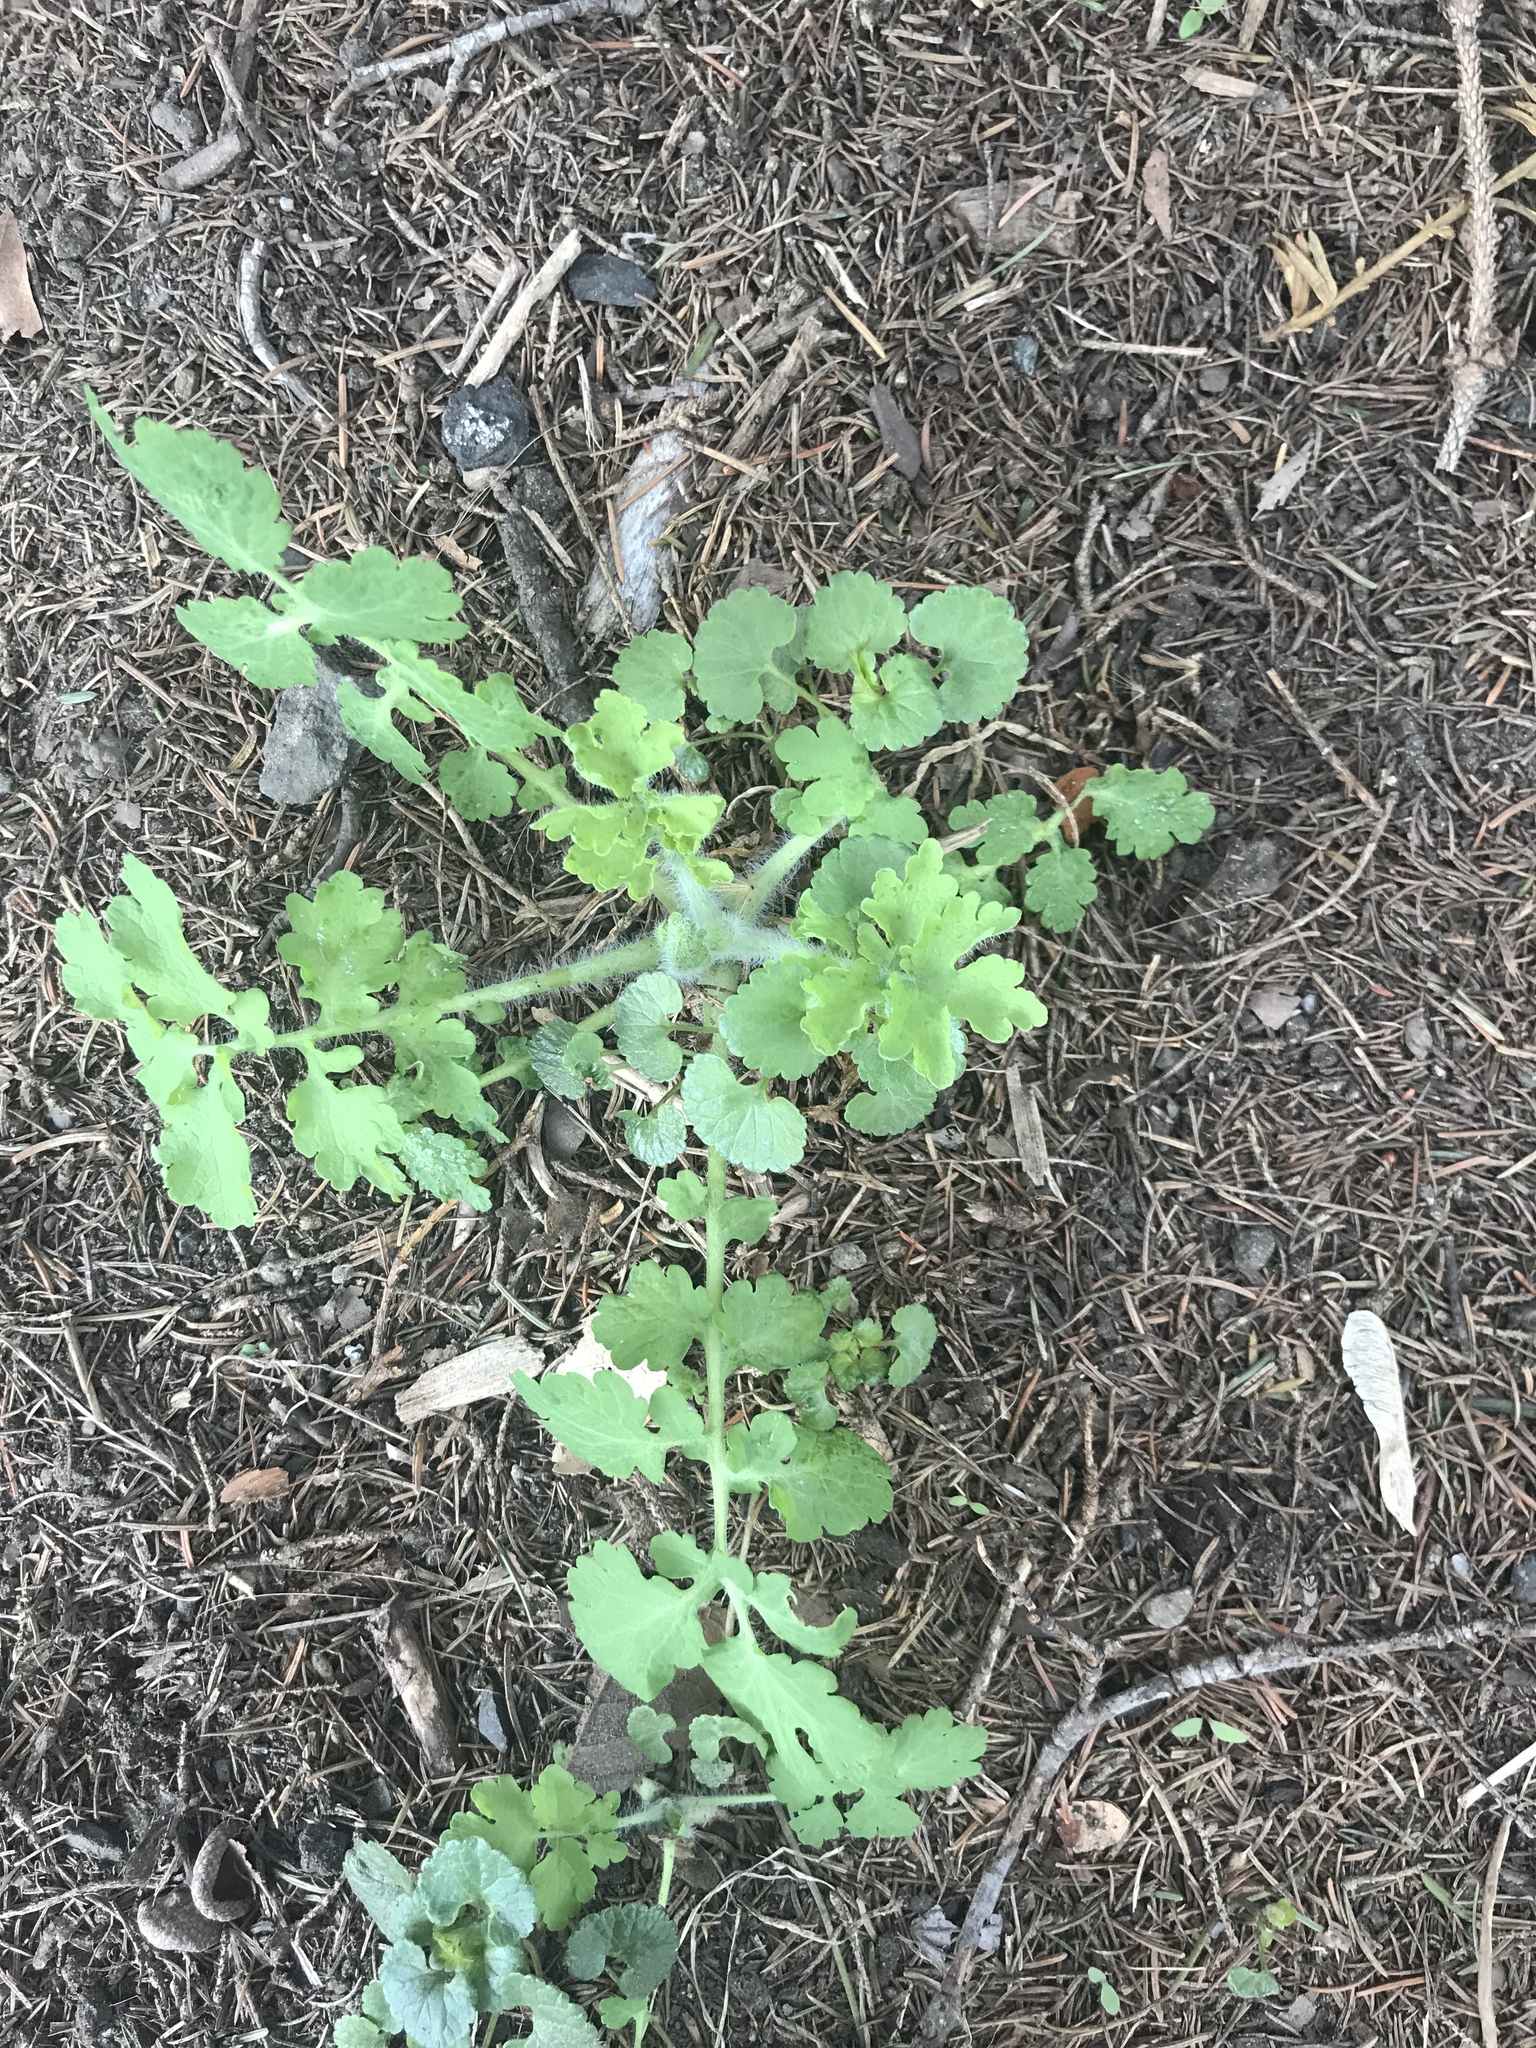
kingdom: Plantae
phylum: Tracheophyta
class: Magnoliopsida
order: Ranunculales
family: Papaveraceae
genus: Chelidonium
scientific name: Chelidonium majus
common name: Greater celandine
